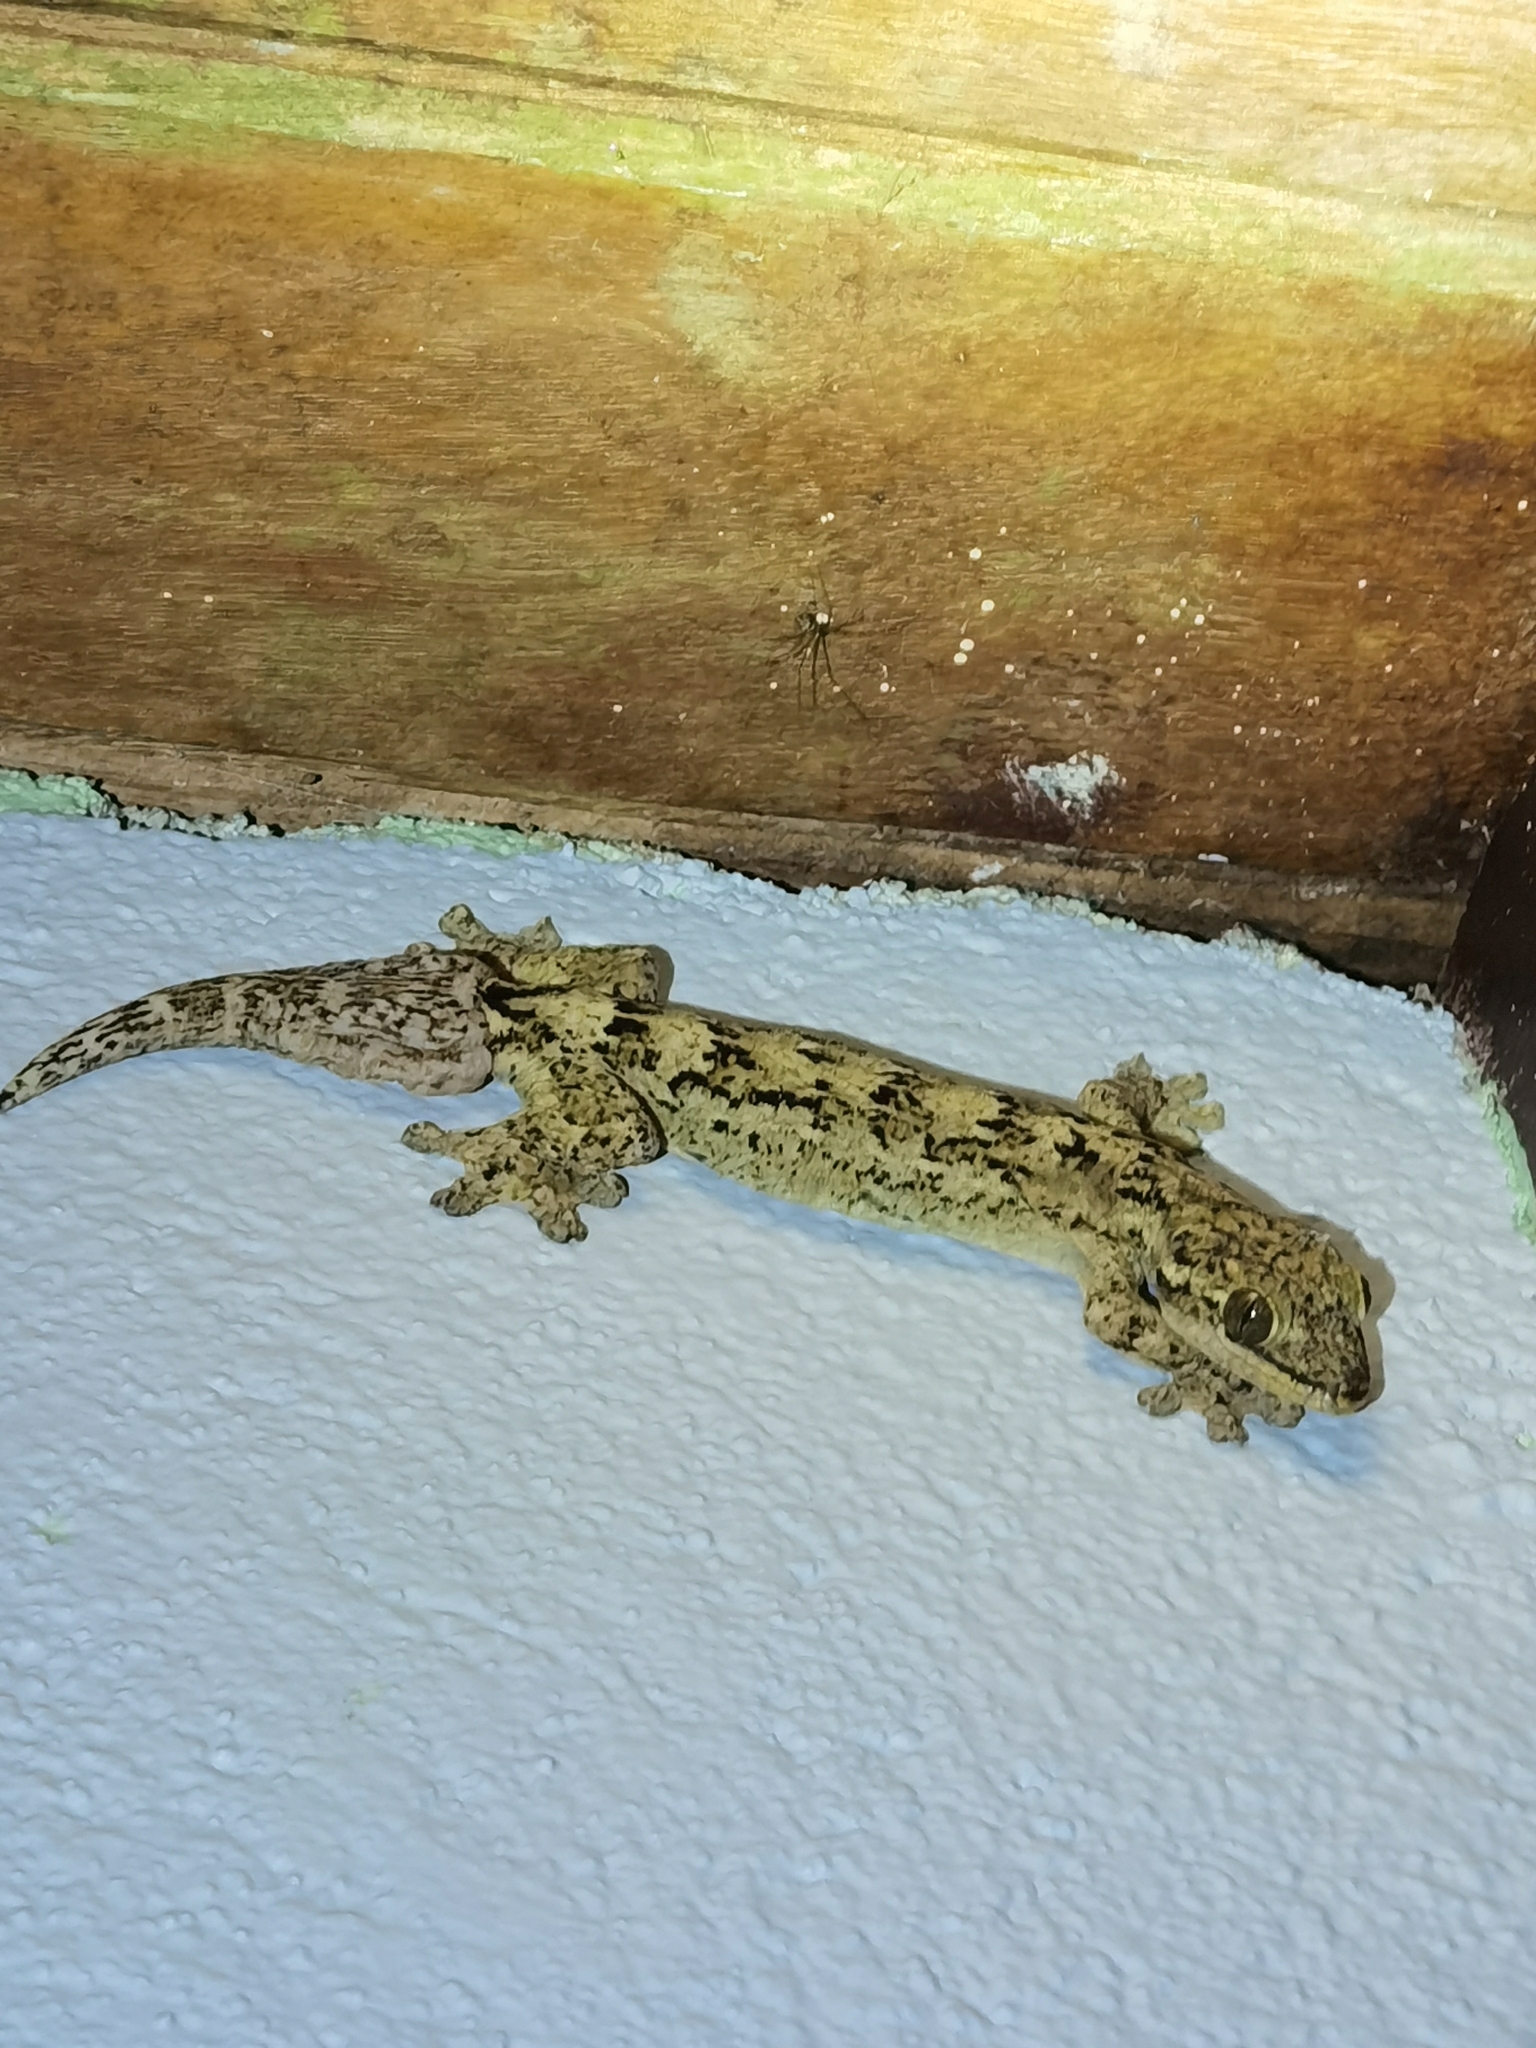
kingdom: Animalia
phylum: Chordata
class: Squamata
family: Phyllodactylidae
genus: Thecadactylus
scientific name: Thecadactylus rapicauda
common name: Turnip-tailed gecko
